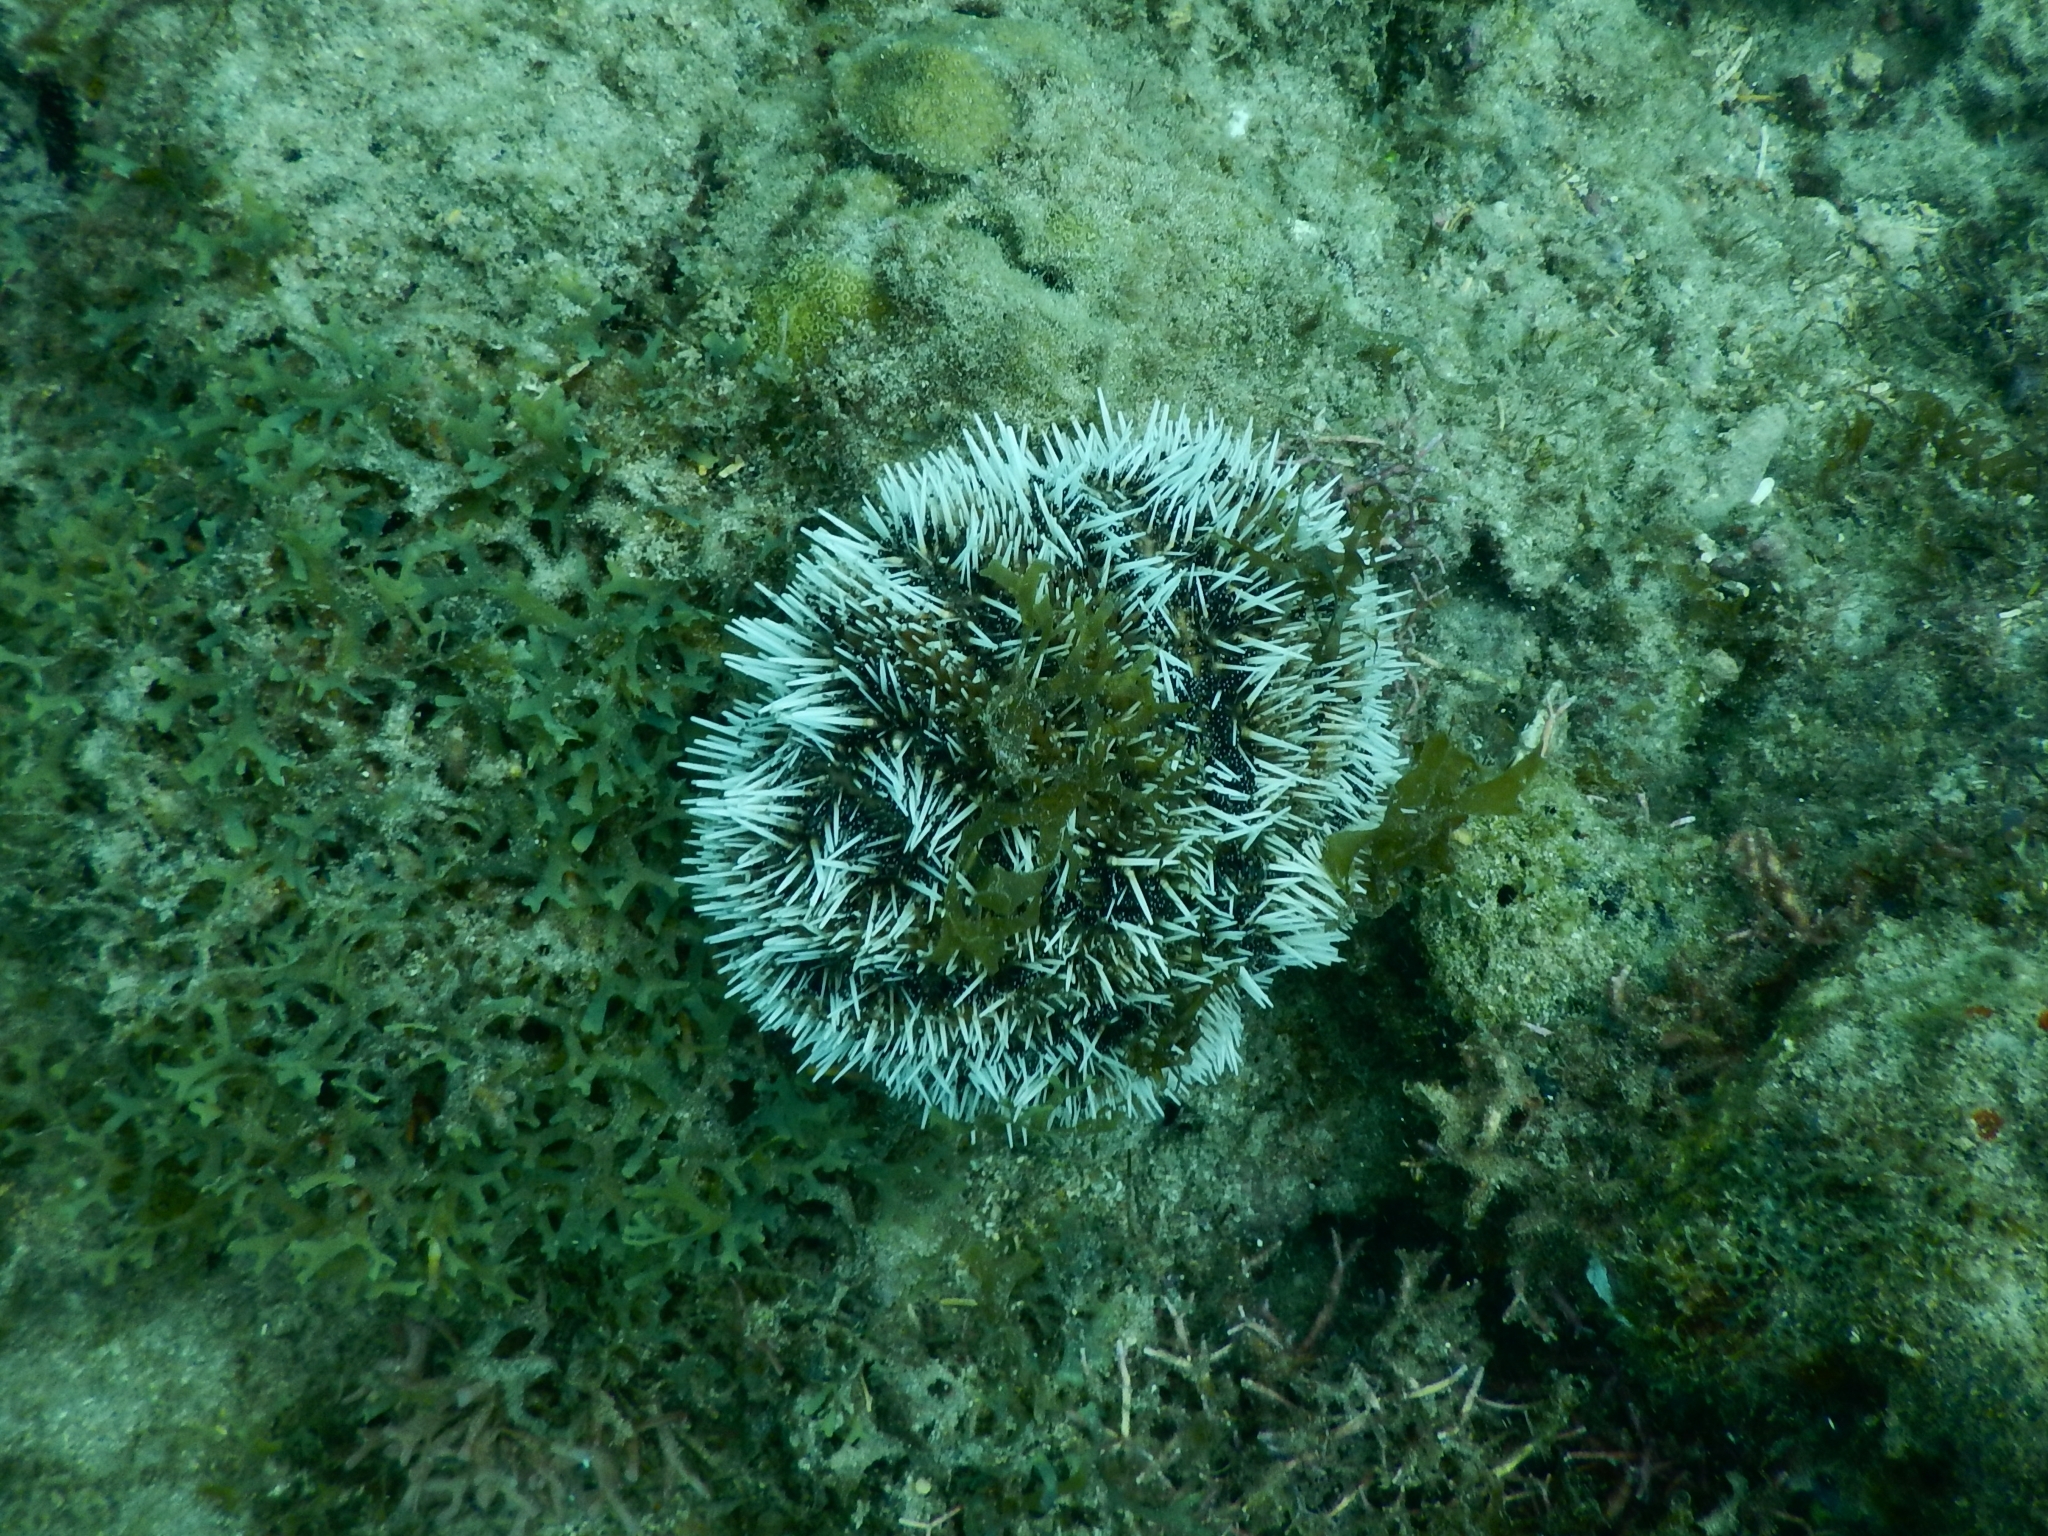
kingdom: Animalia
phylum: Echinodermata
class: Echinoidea
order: Camarodonta
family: Toxopneustidae
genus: Tripneustes
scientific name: Tripneustes ventricosus
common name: West indian sea egg
